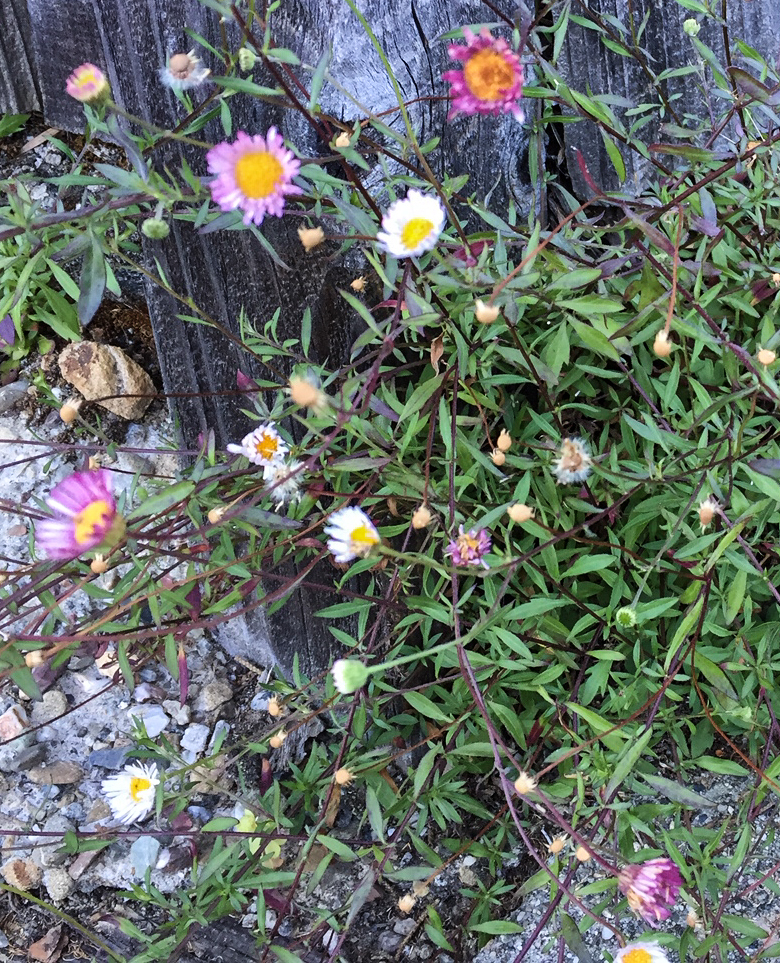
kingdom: Plantae
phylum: Tracheophyta
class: Magnoliopsida
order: Asterales
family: Asteraceae
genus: Erigeron
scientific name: Erigeron karvinskianus
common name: Mexican fleabane
